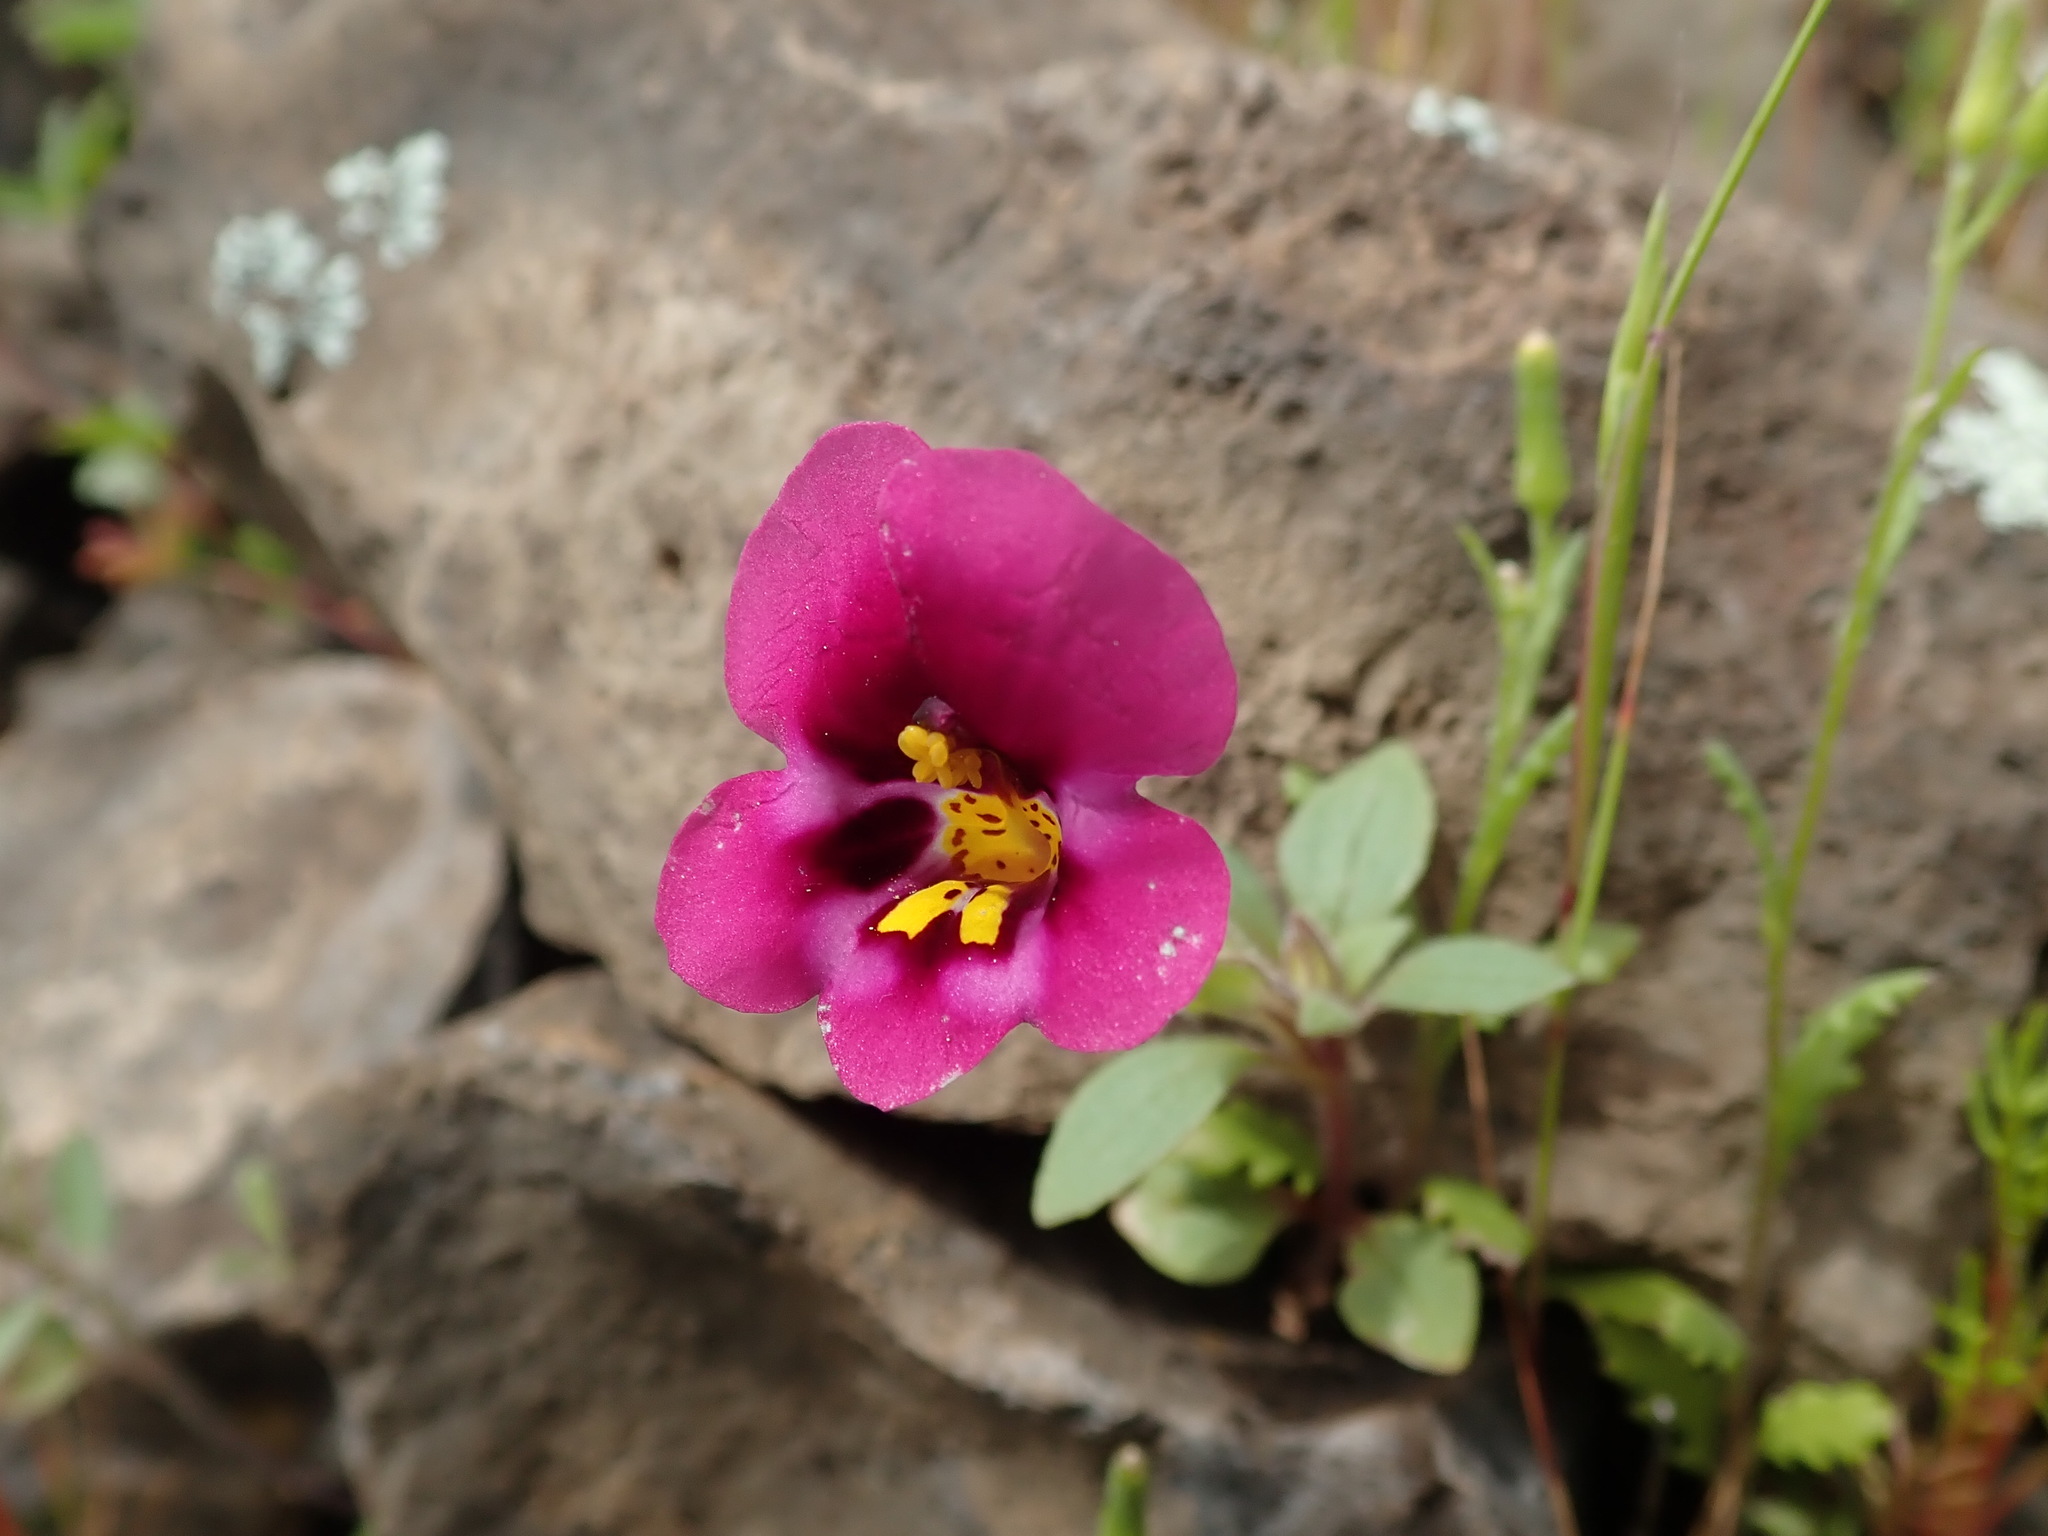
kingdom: Plantae
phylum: Tracheophyta
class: Magnoliopsida
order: Lamiales
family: Phrymaceae
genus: Diplacus
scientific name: Diplacus kelloggii
